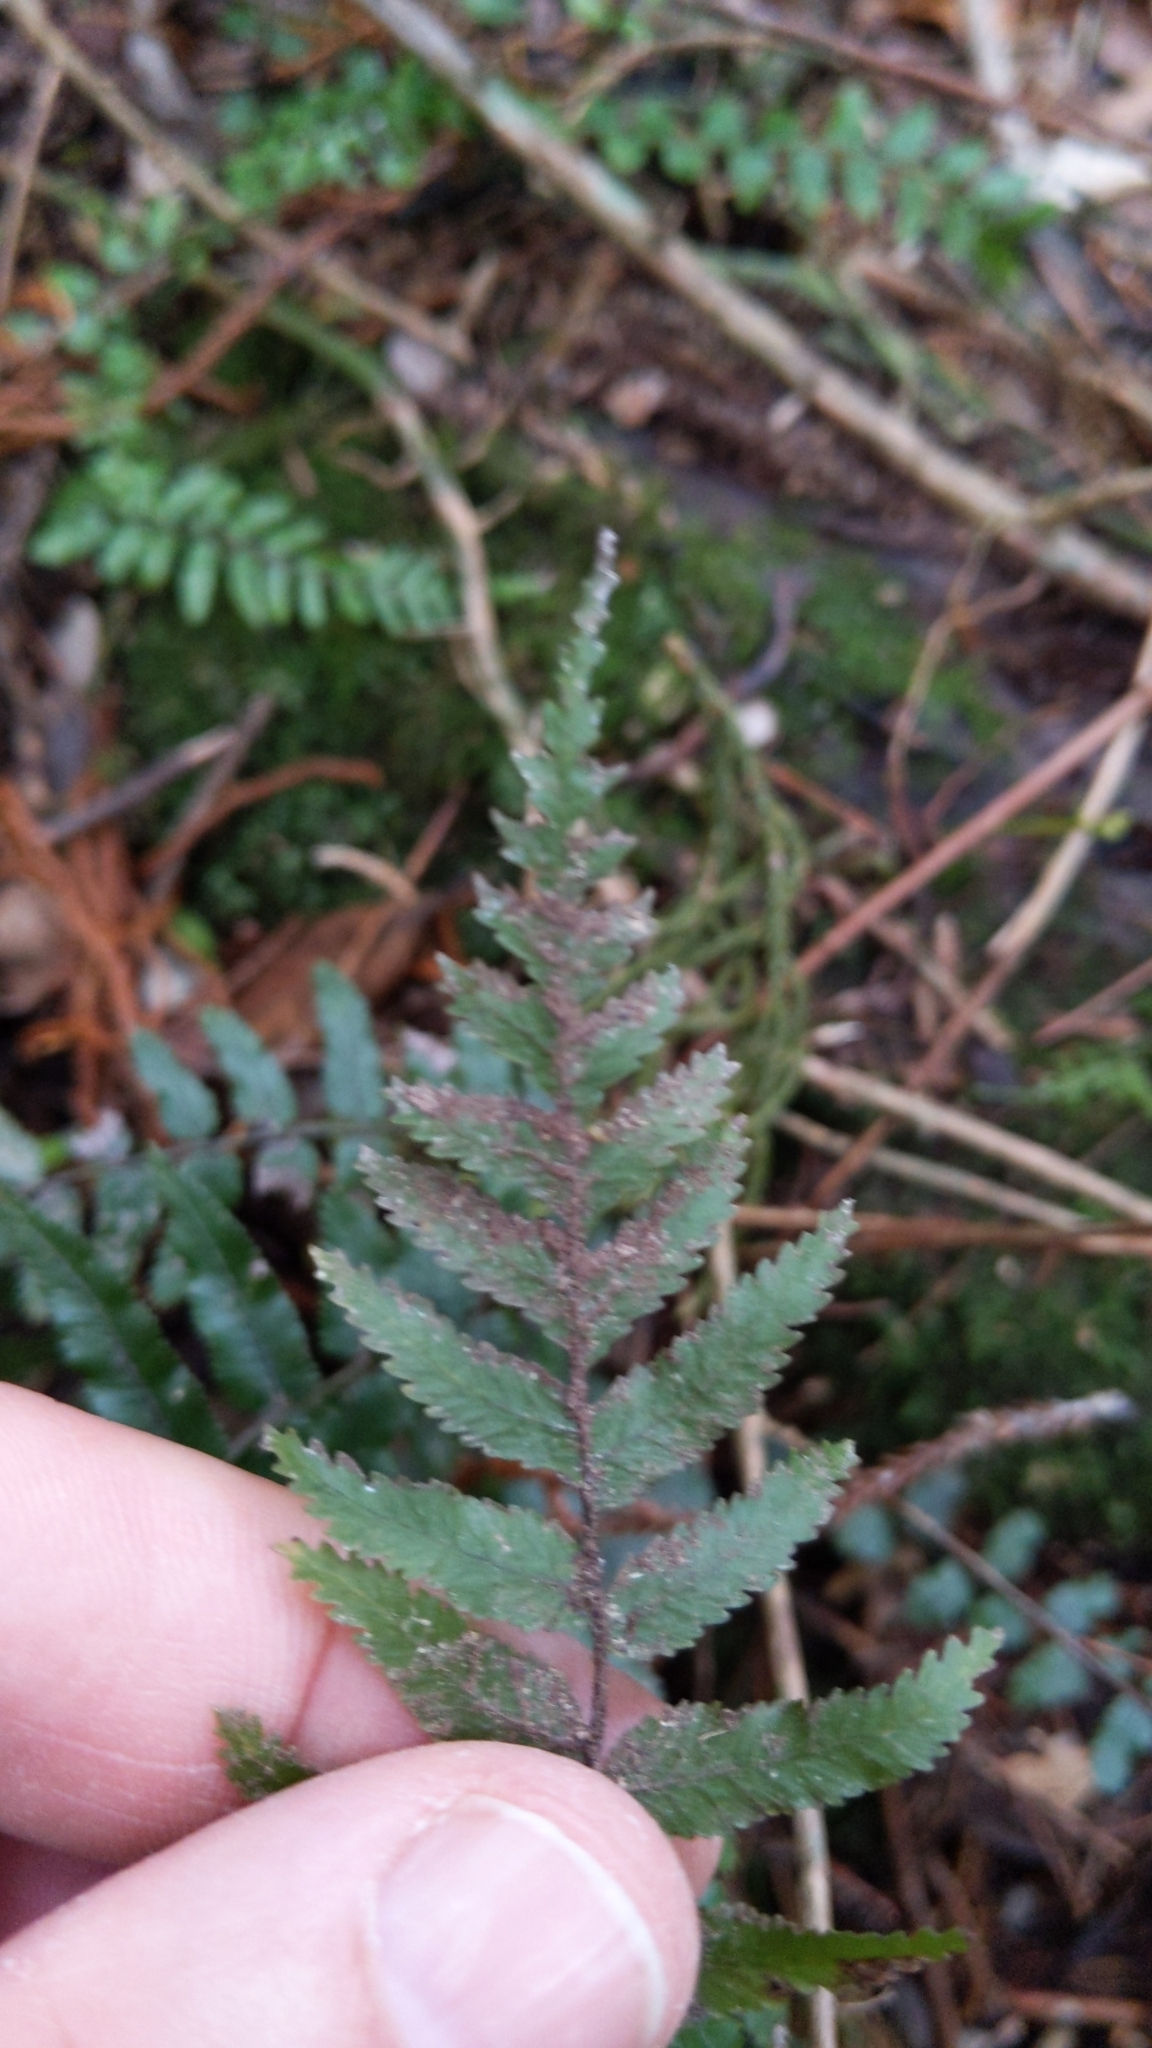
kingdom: Plantae
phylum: Tracheophyta
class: Polypodiopsida
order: Polypodiales
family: Blechnaceae
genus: Icarus
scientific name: Icarus filiformis
